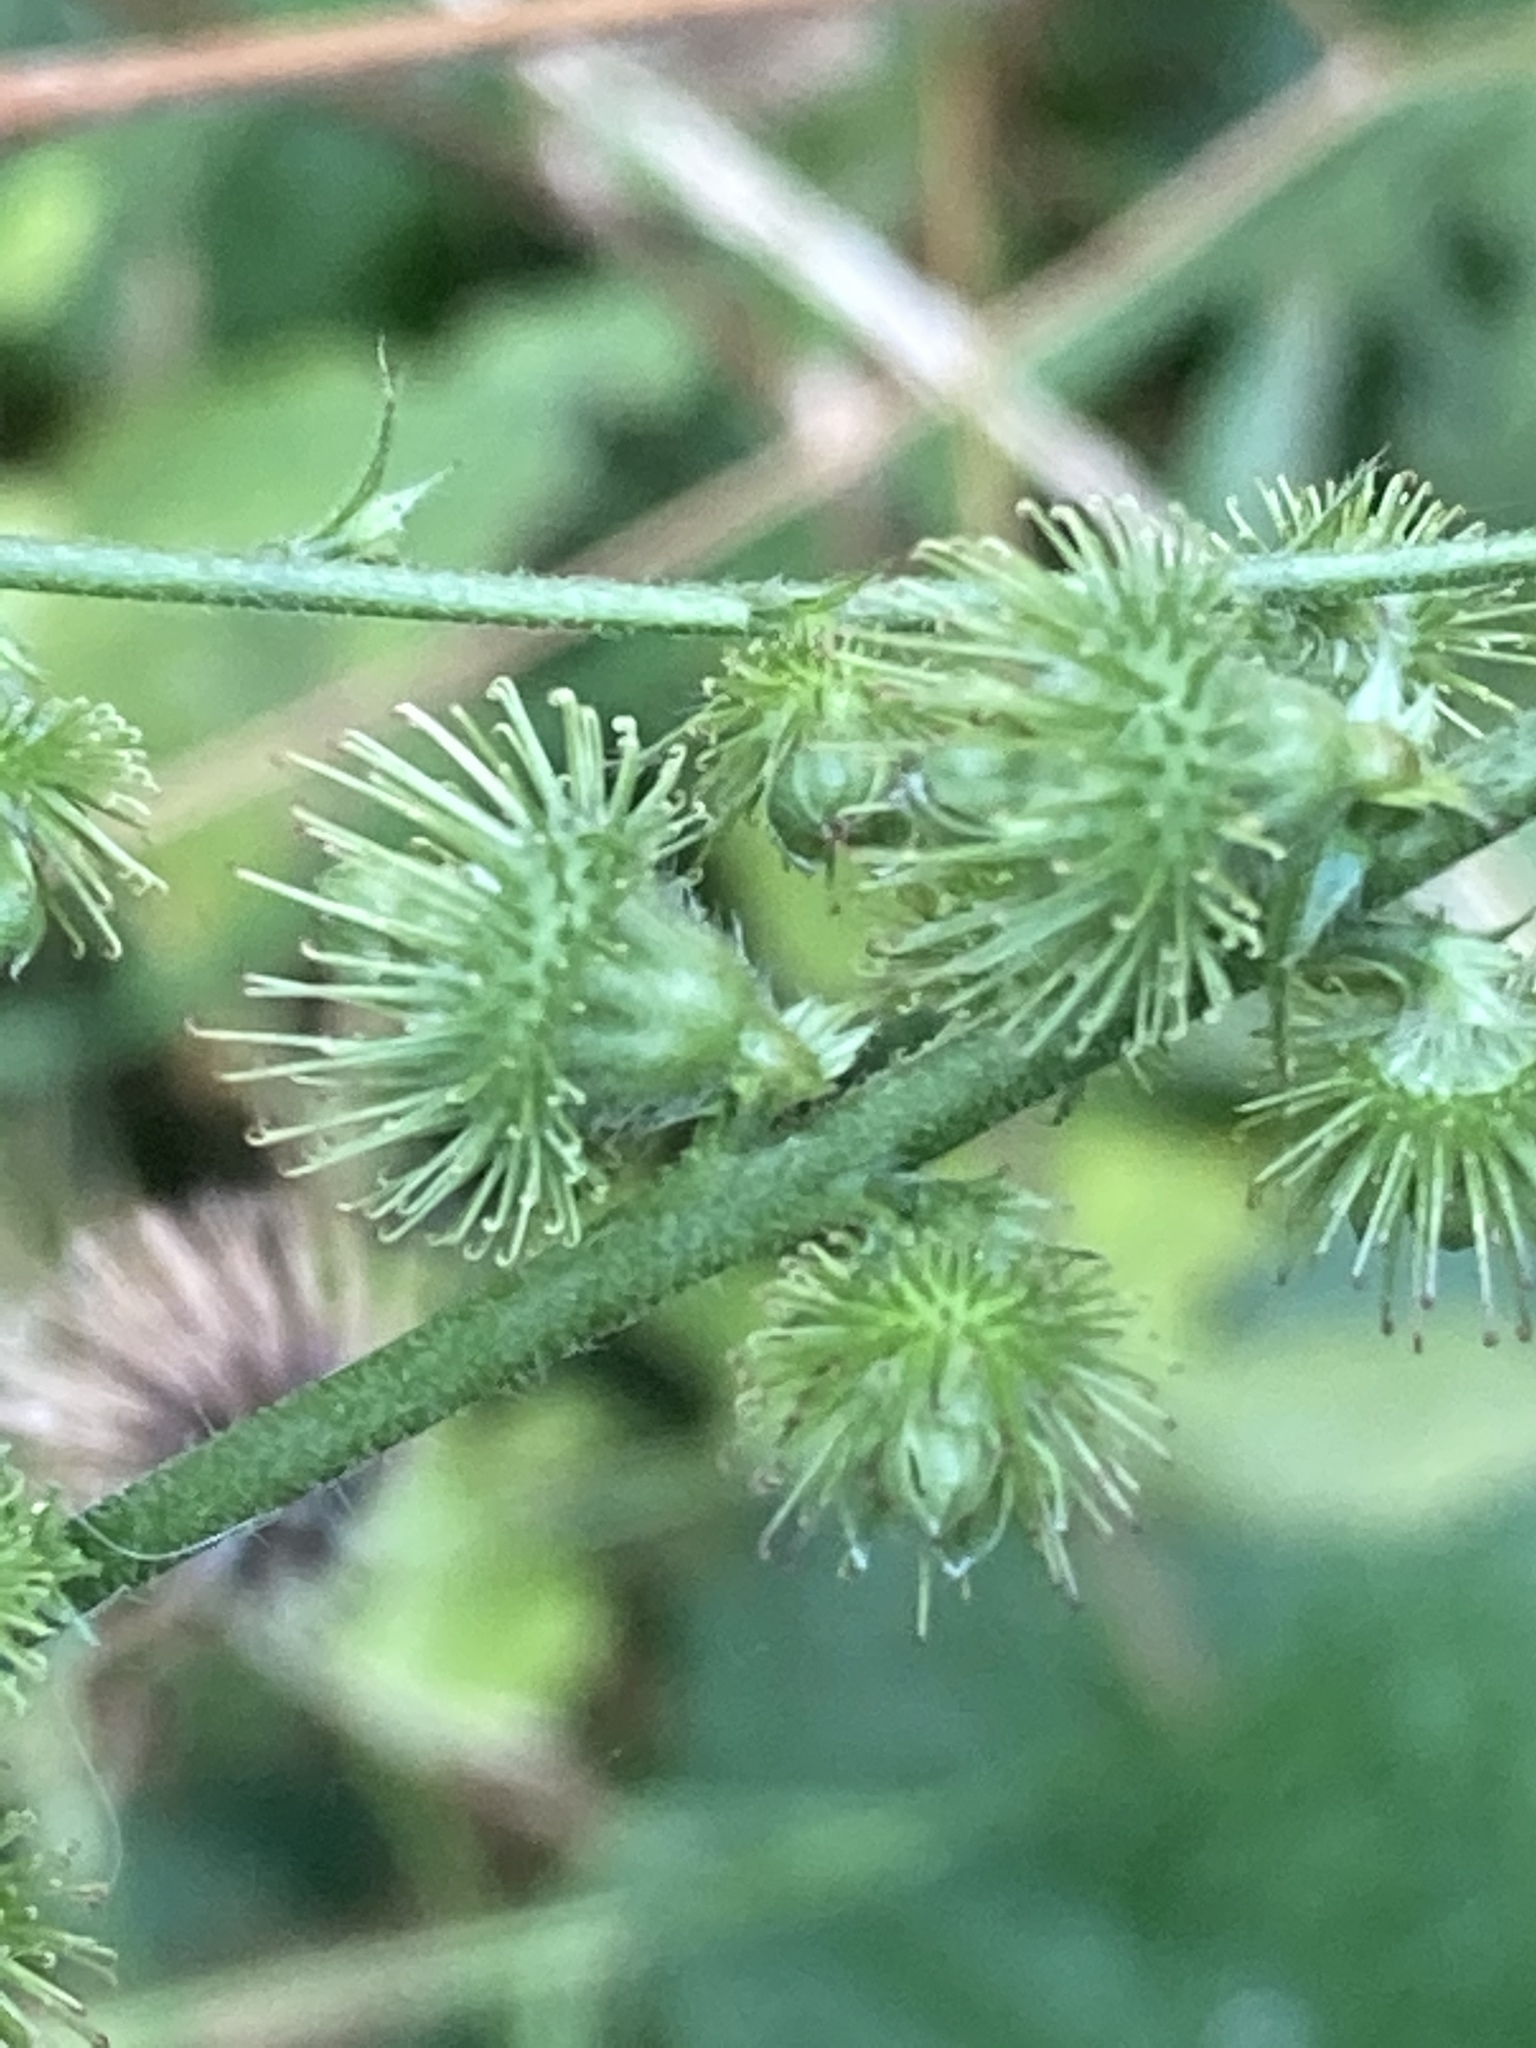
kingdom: Plantae
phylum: Tracheophyta
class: Magnoliopsida
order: Rosales
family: Rosaceae
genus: Agrimonia
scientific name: Agrimonia procera
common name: Fragrant agrimony
